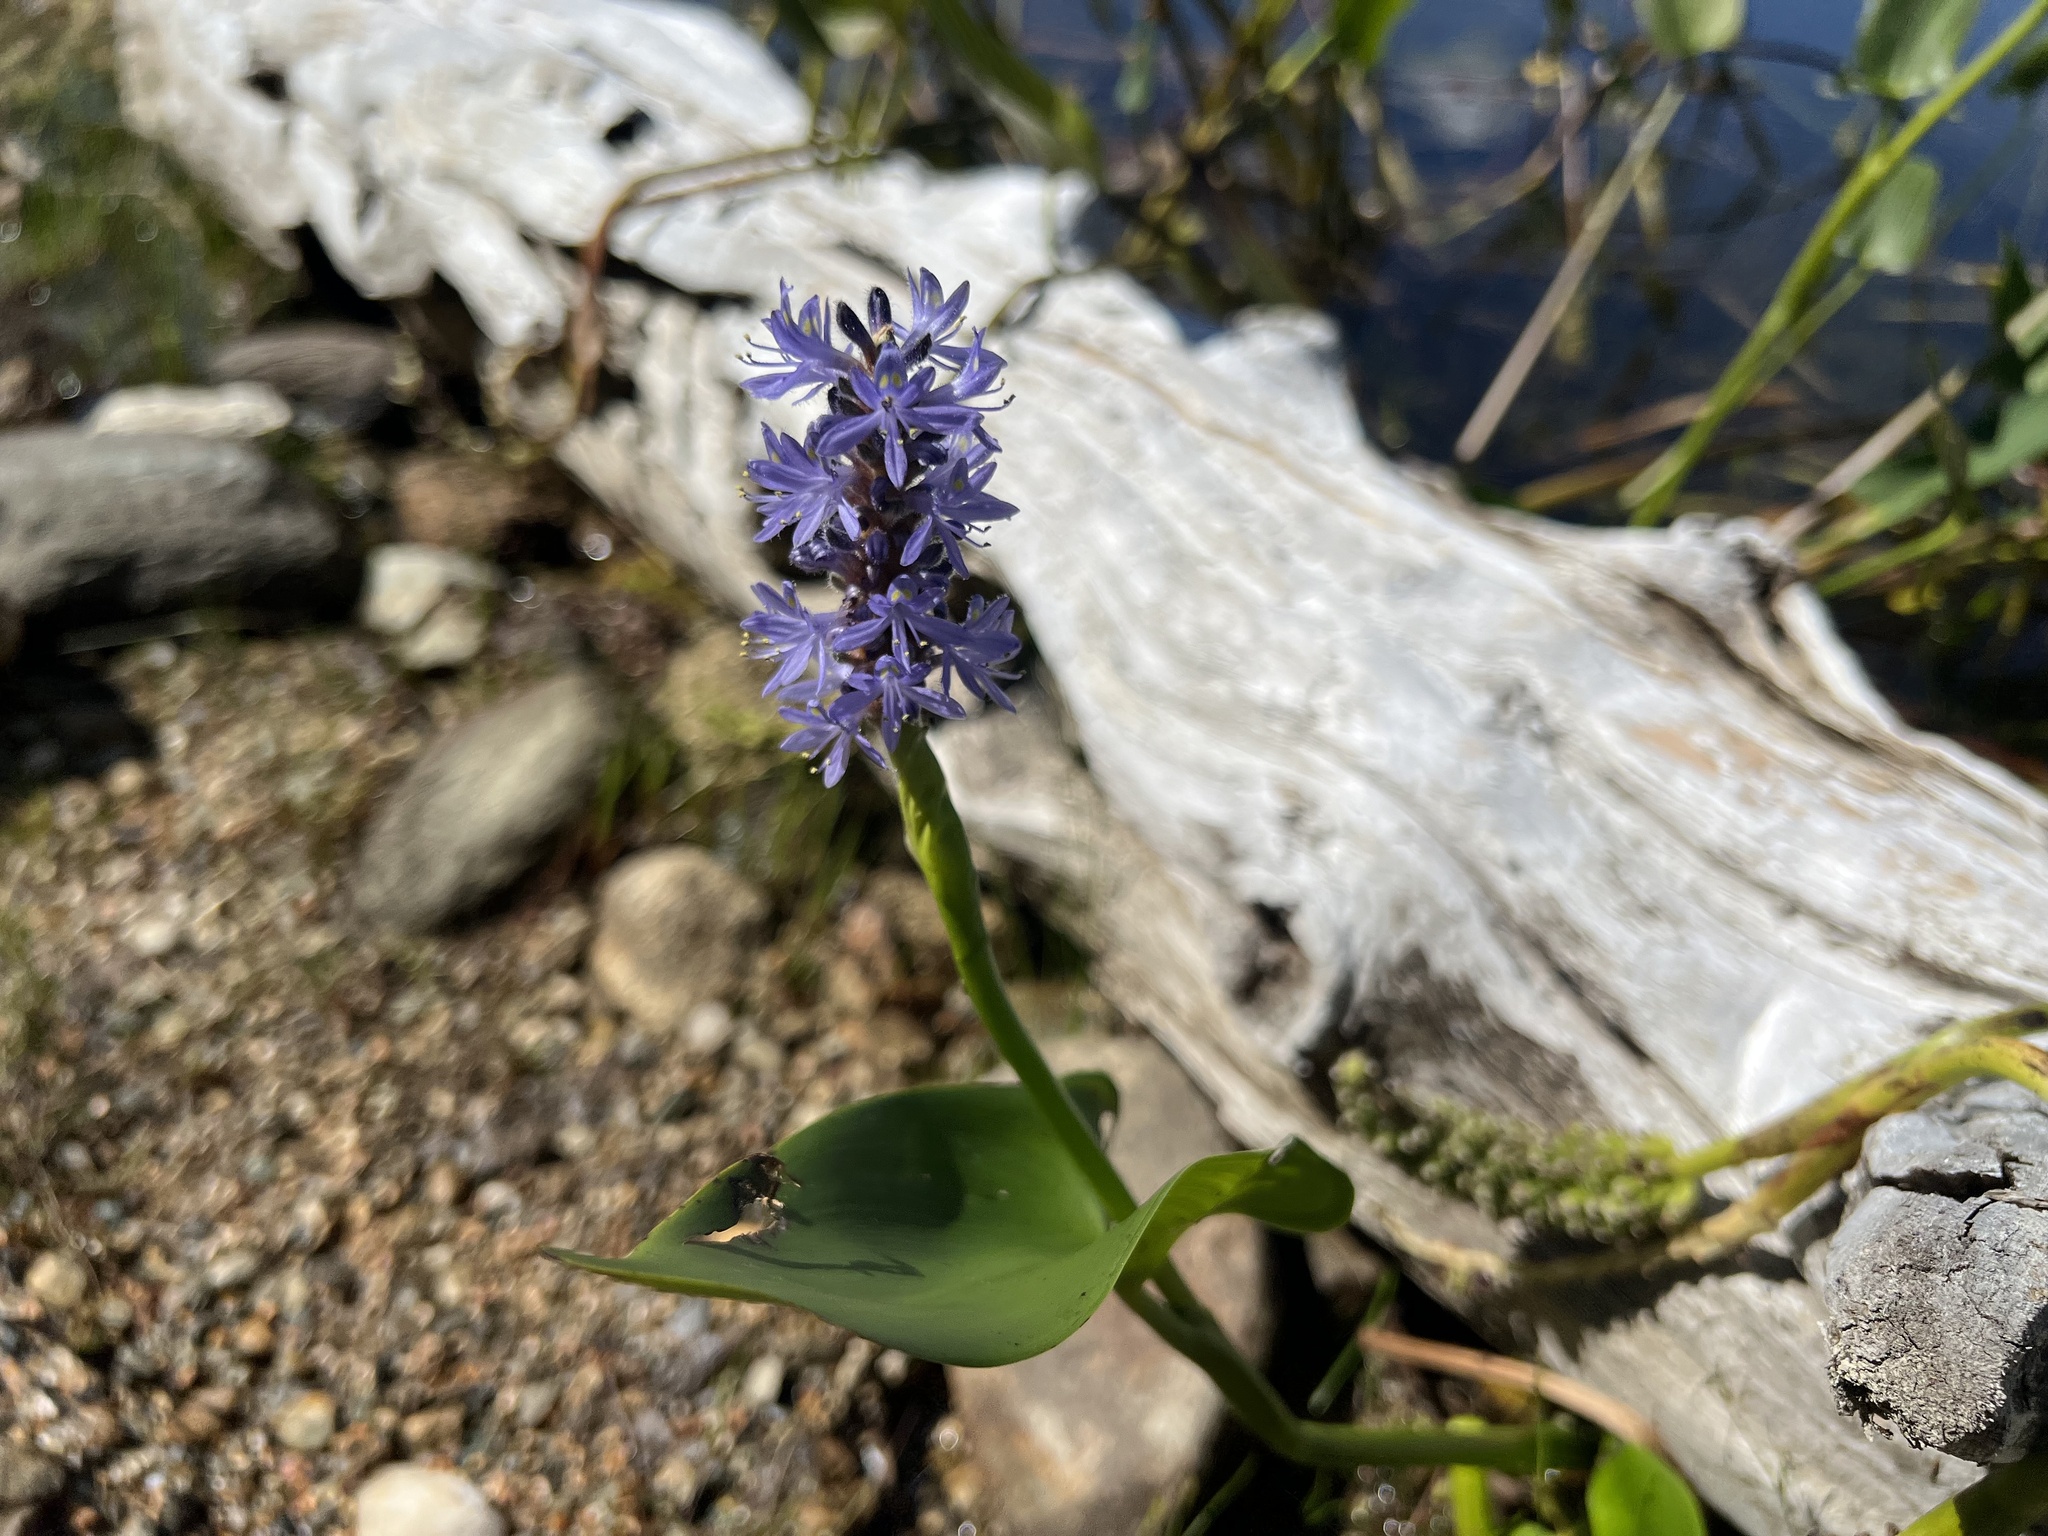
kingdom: Plantae
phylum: Tracheophyta
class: Liliopsida
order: Commelinales
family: Pontederiaceae
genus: Pontederia
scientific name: Pontederia cordata
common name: Pickerelweed
